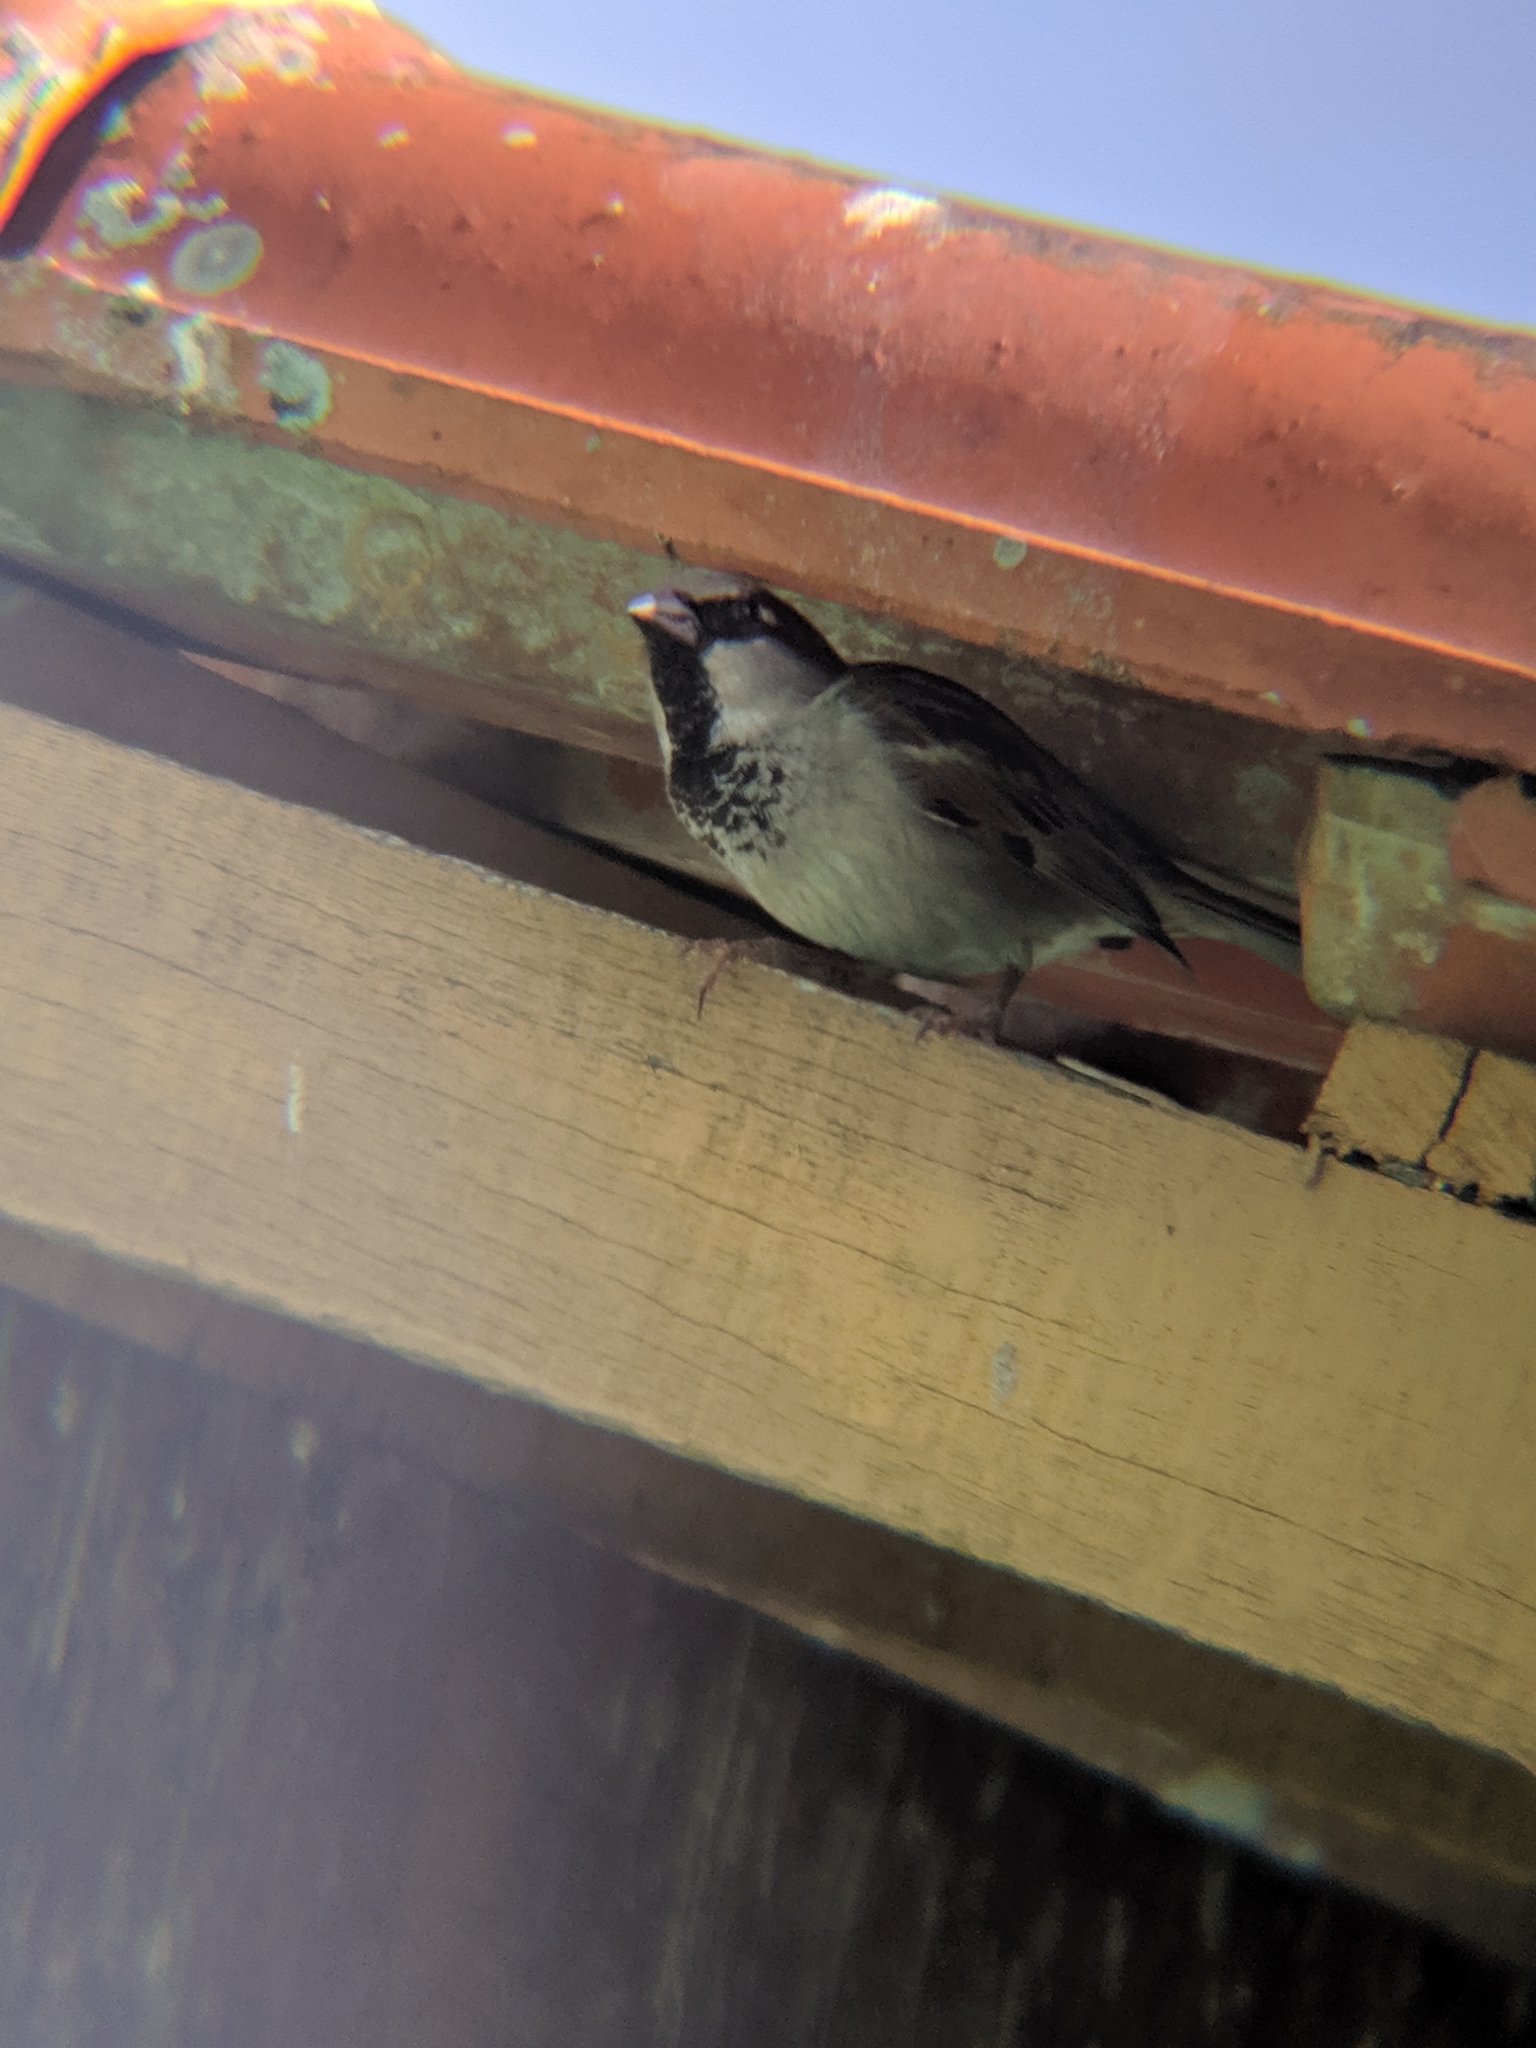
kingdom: Animalia
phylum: Chordata
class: Aves
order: Passeriformes
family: Passeridae
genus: Passer
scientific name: Passer domesticus
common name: House sparrow
